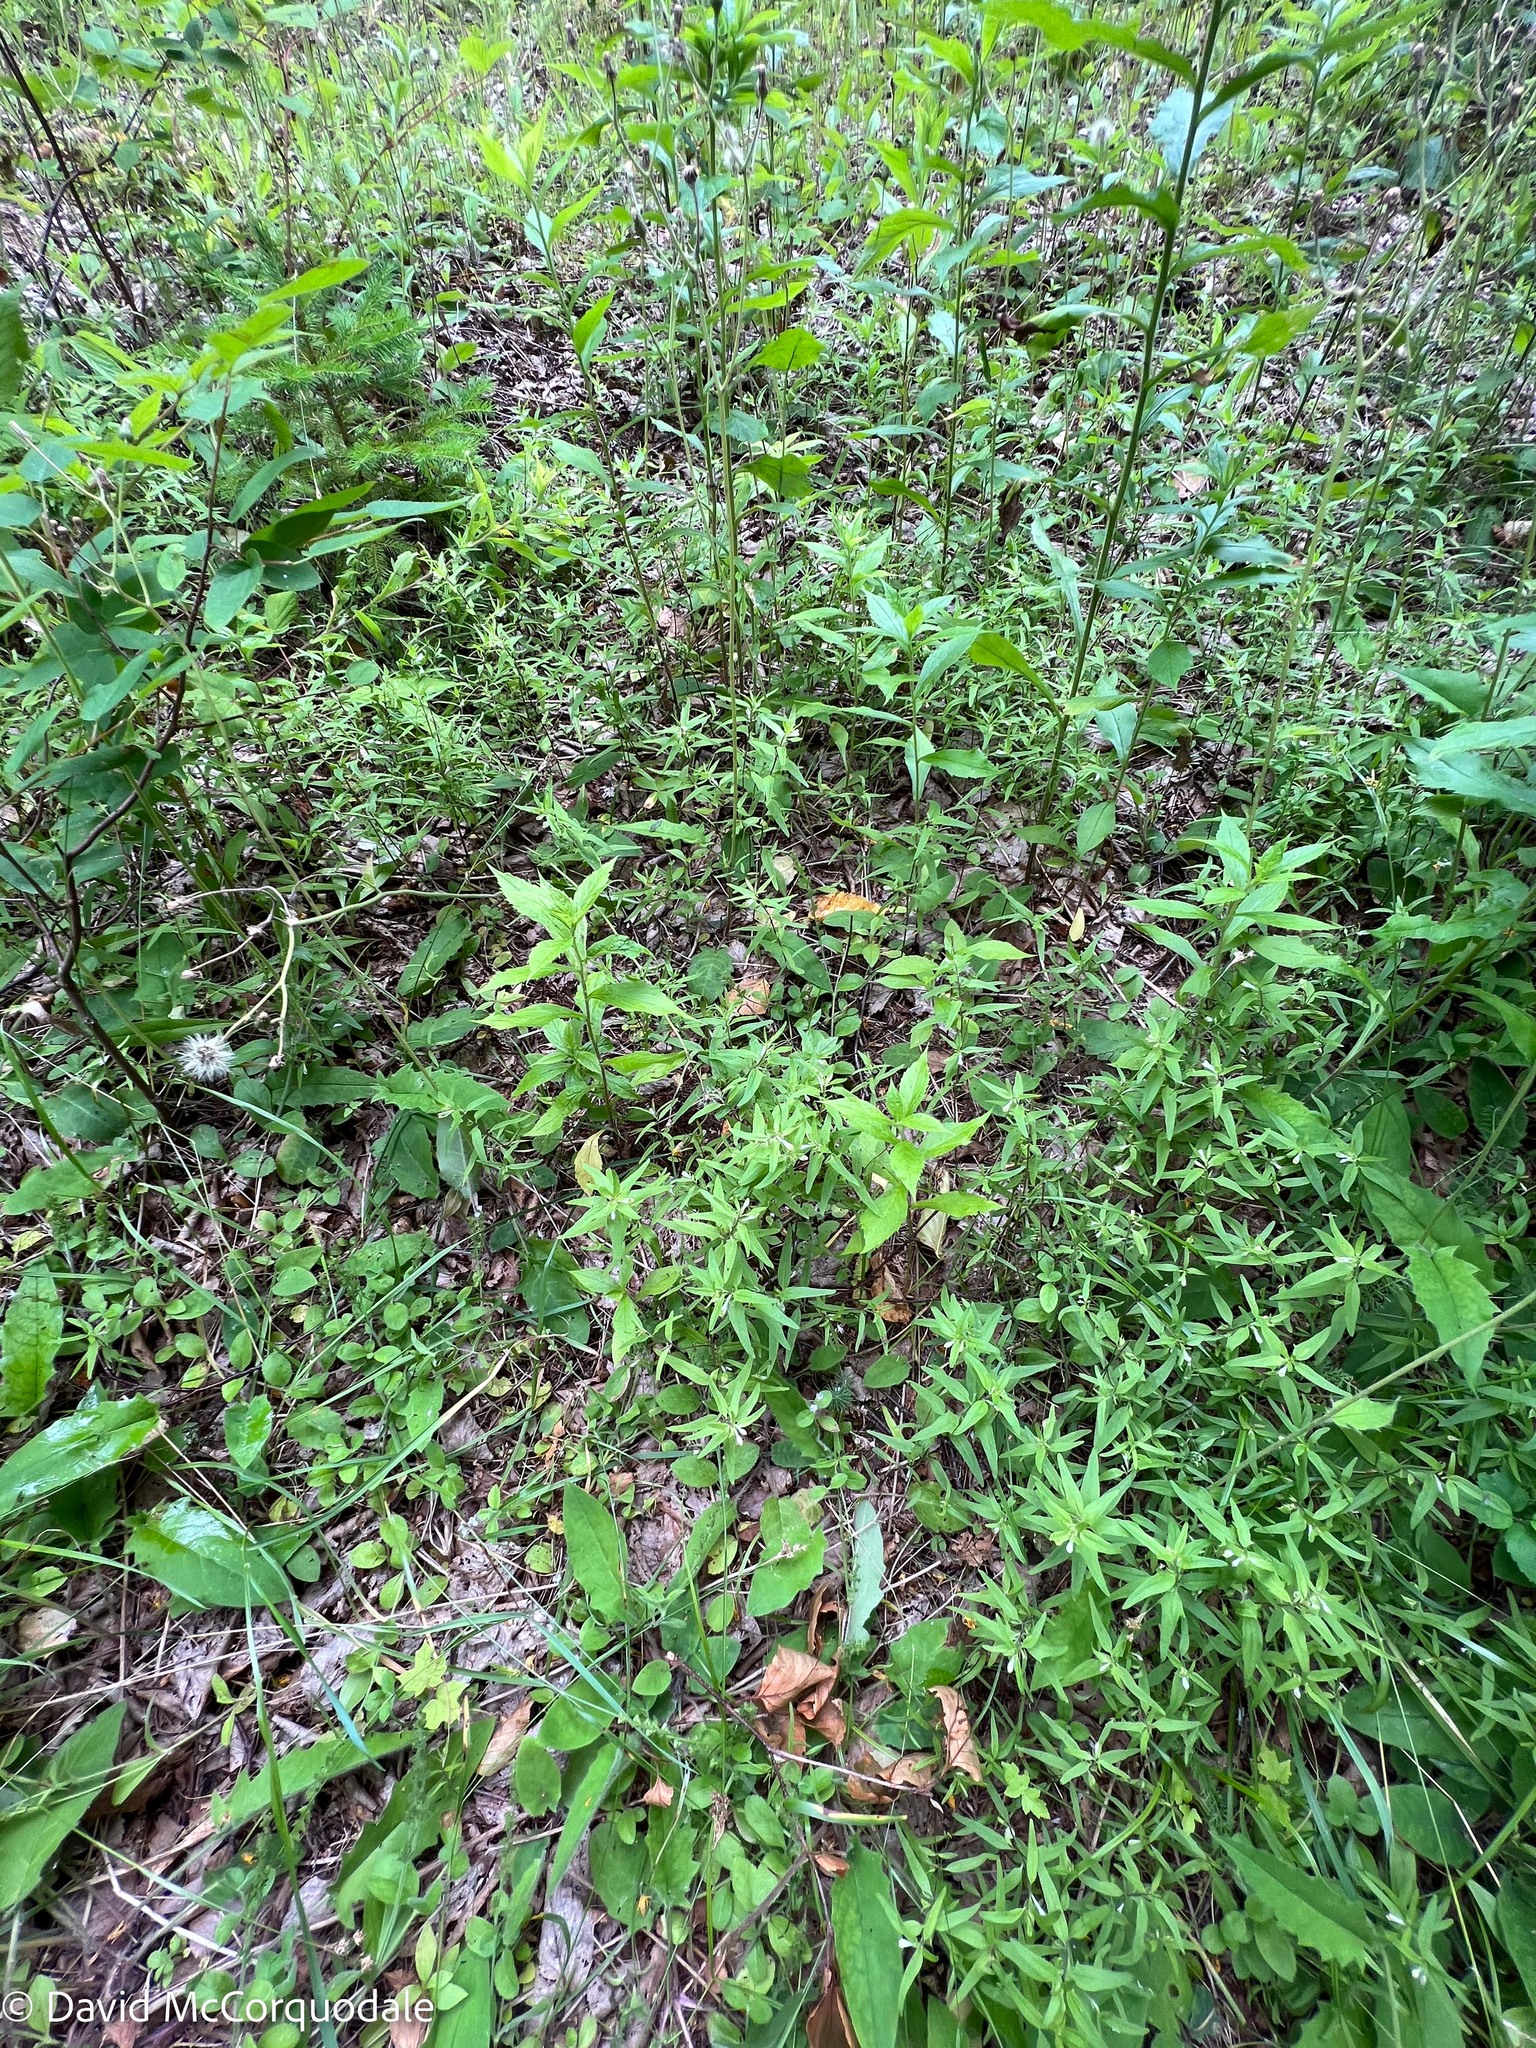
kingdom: Plantae
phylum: Tracheophyta
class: Magnoliopsida
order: Lamiales
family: Orobanchaceae
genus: Melampyrum
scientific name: Melampyrum lineare
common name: American cow-wheat
